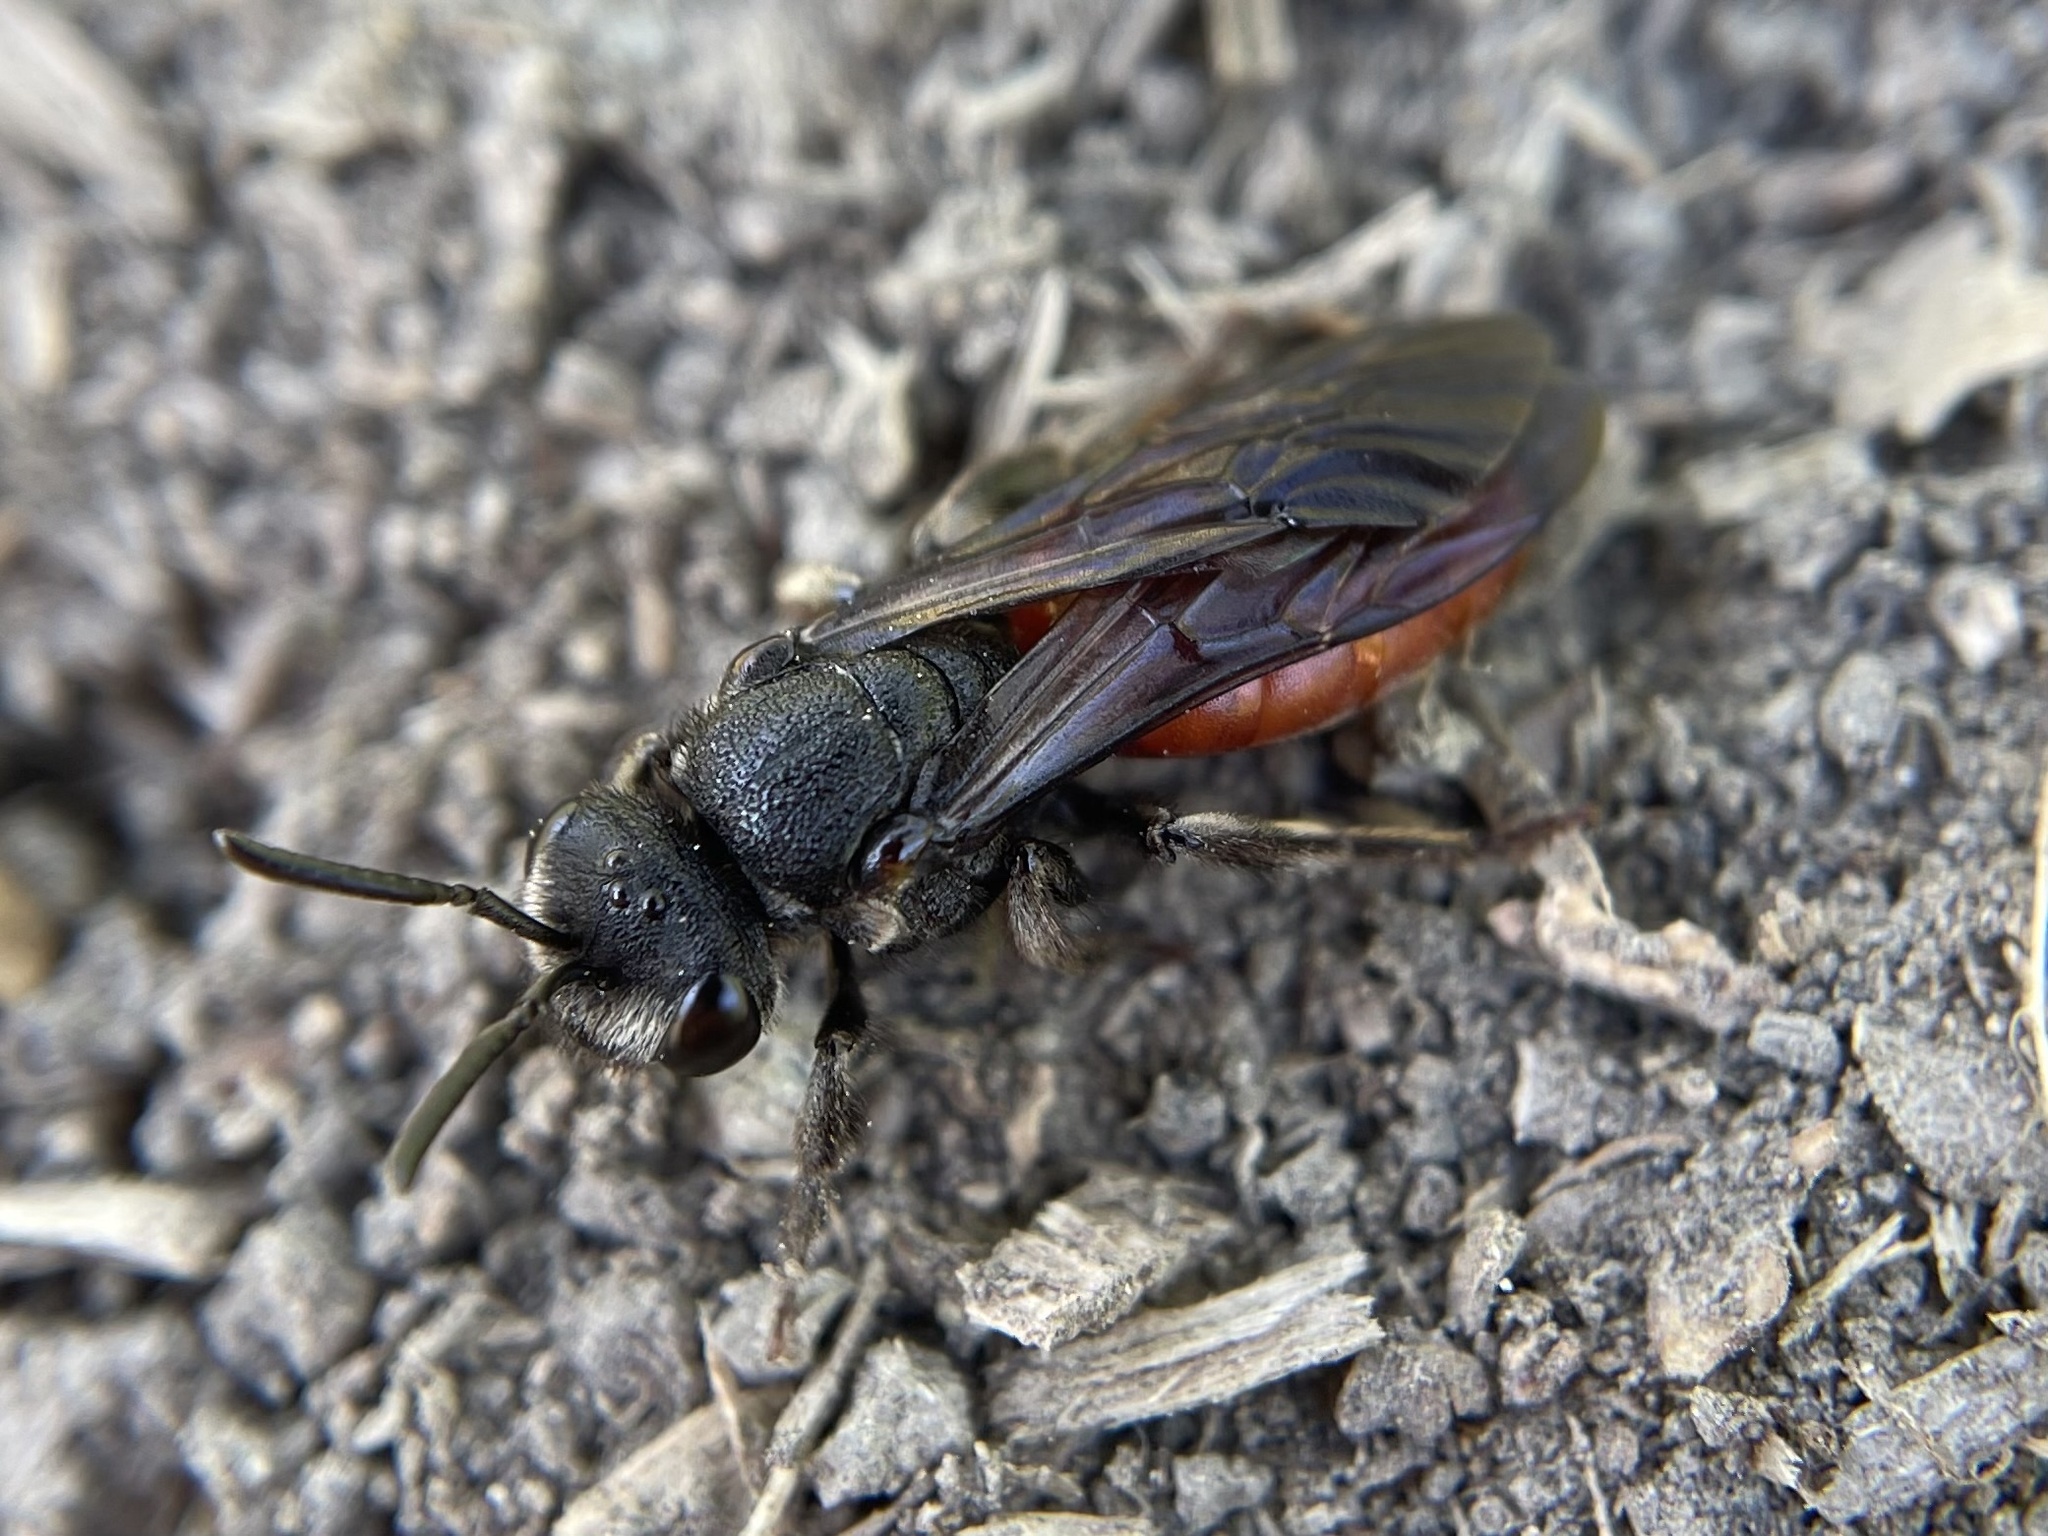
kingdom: Animalia
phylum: Arthropoda
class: Insecta
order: Hymenoptera
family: Halictidae
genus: Sphecodes
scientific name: Sphecodes albilabris
